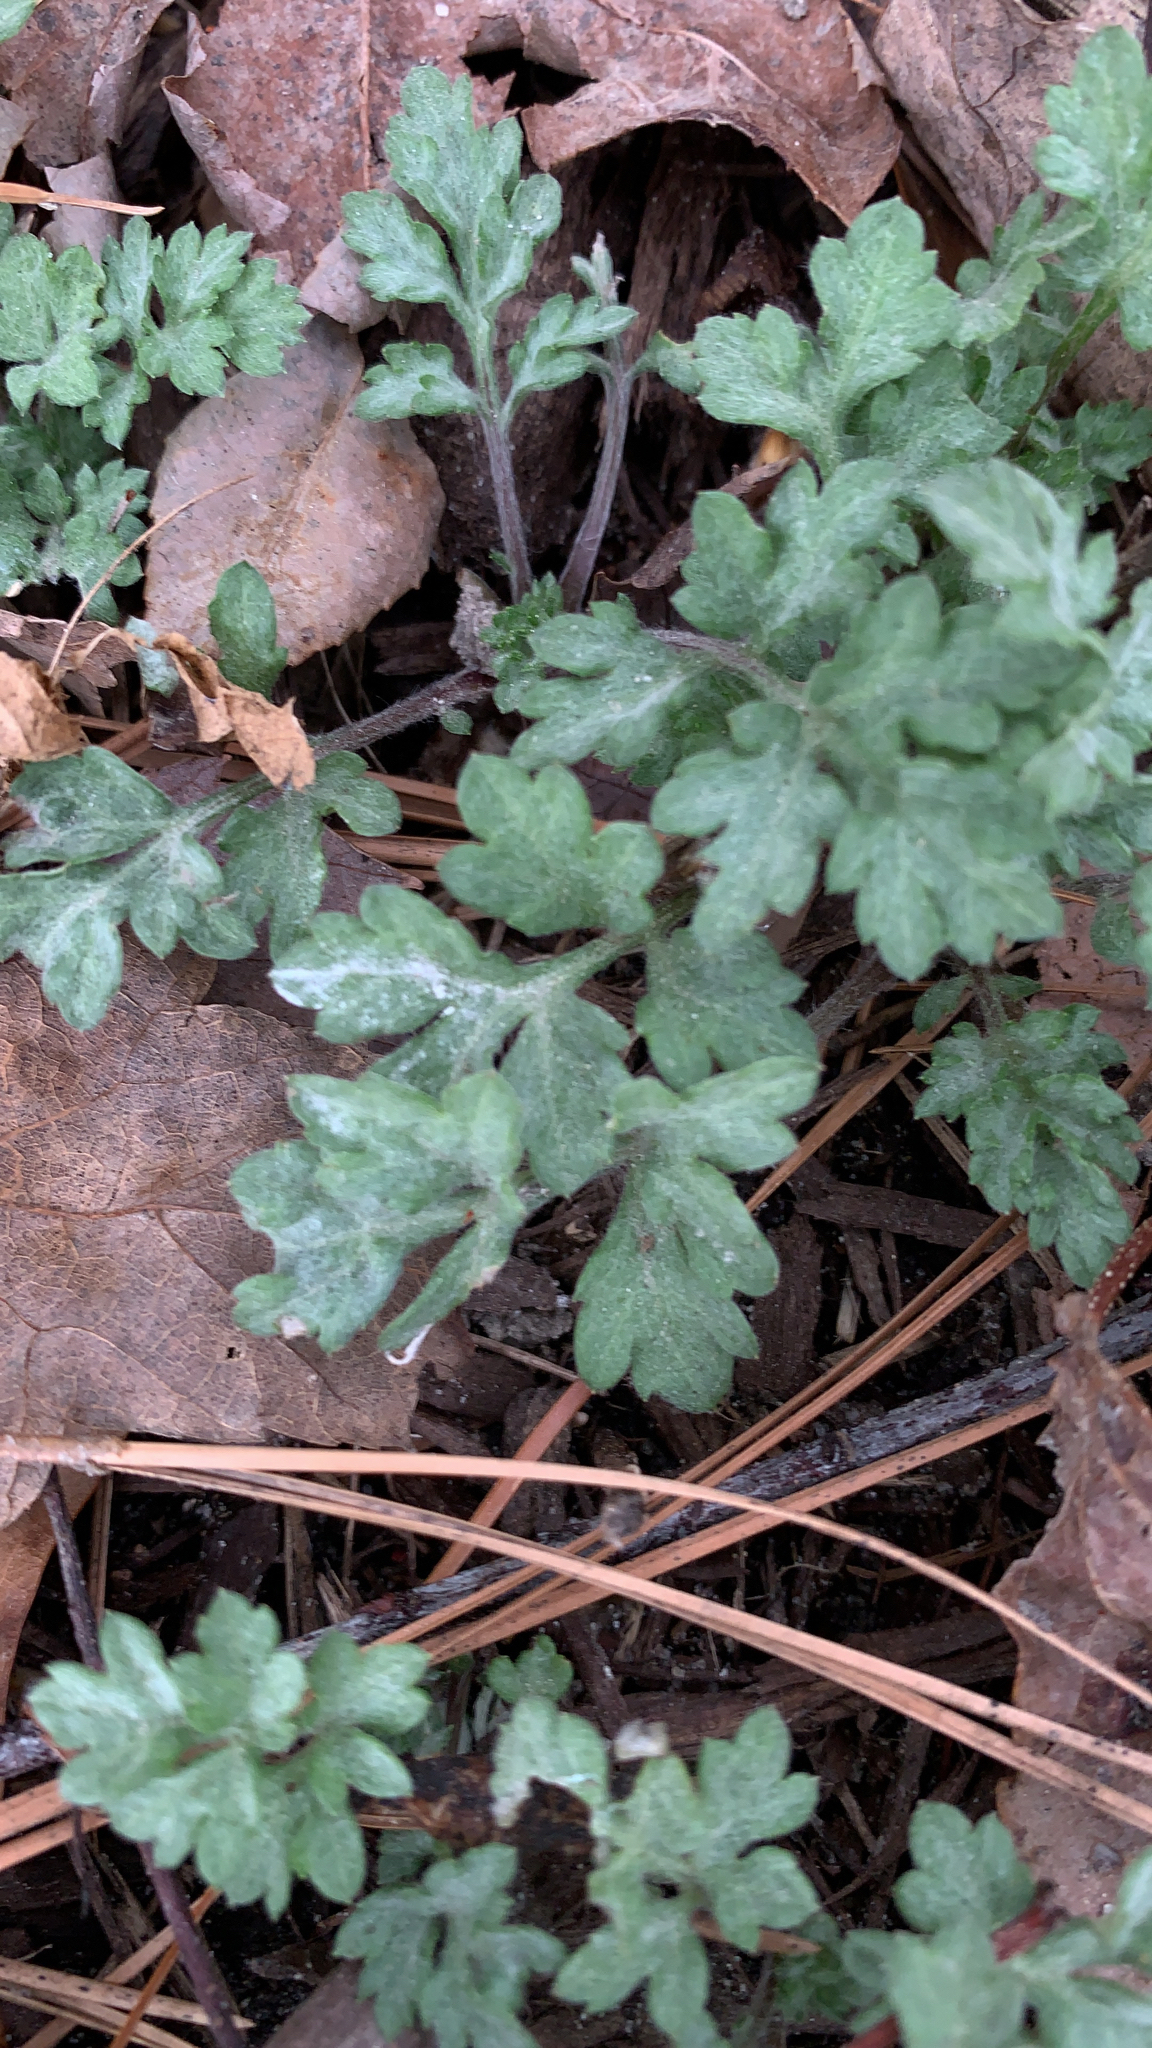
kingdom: Plantae
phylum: Tracheophyta
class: Magnoliopsida
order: Asterales
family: Asteraceae
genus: Artemisia
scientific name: Artemisia vulgaris
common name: Mugwort
